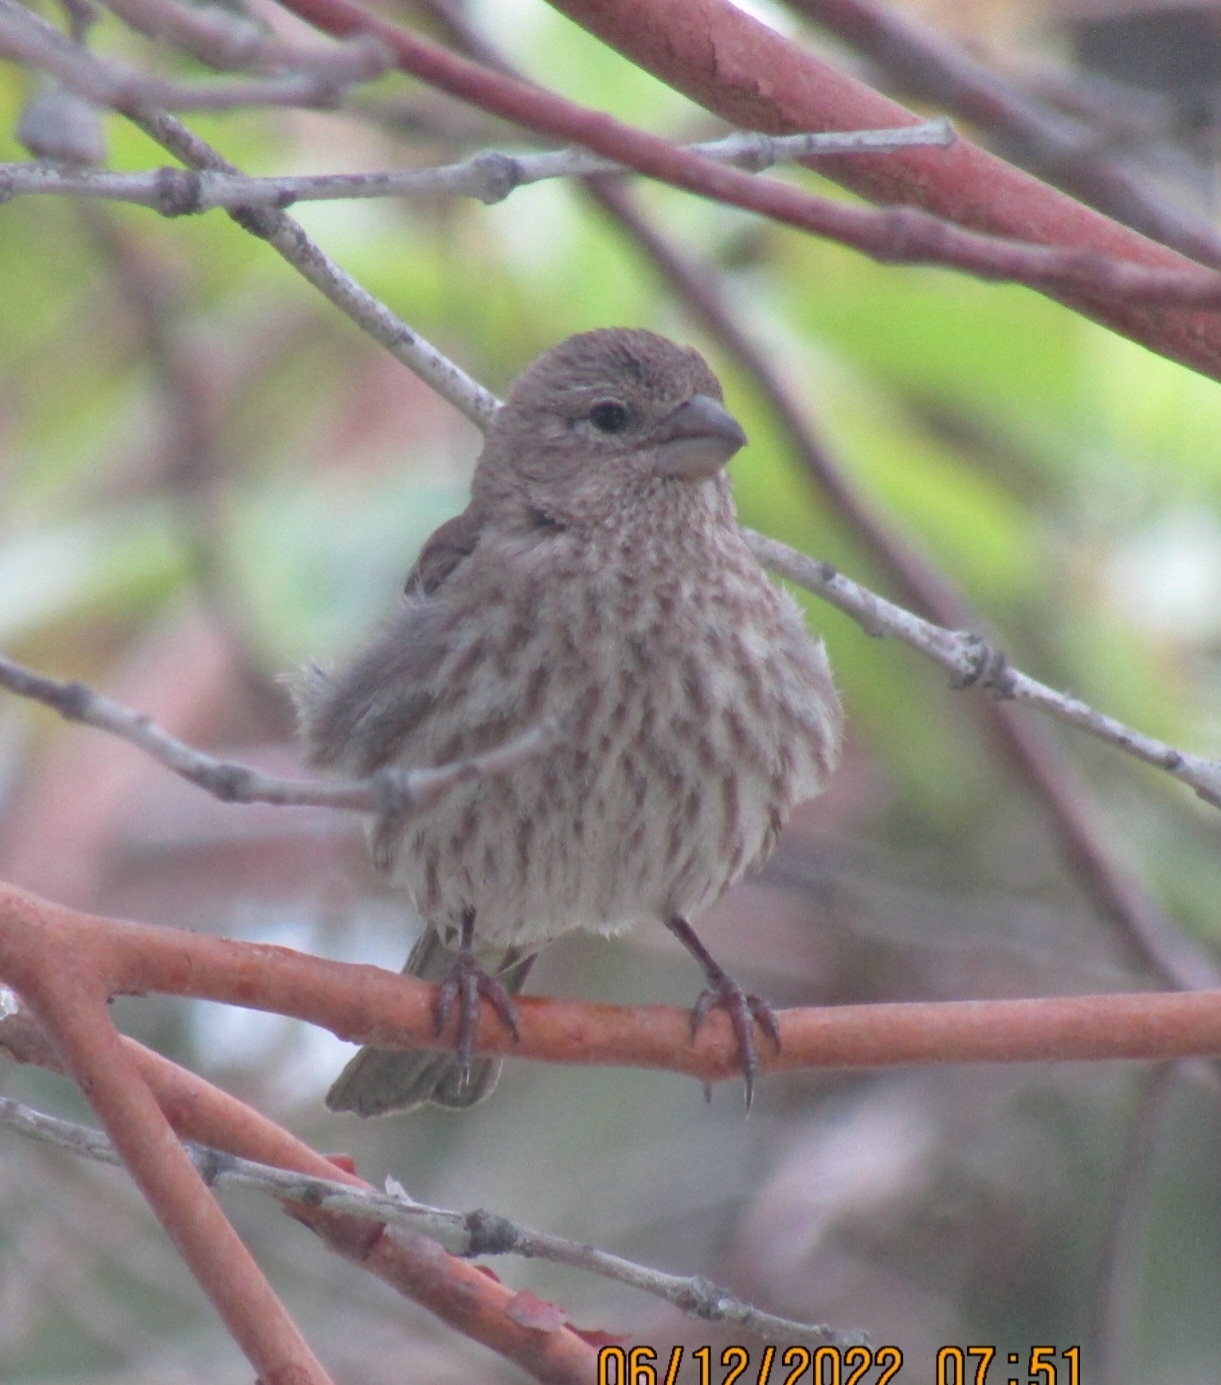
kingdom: Animalia
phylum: Chordata
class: Aves
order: Passeriformes
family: Fringillidae
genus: Haemorhous
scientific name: Haemorhous mexicanus
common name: House finch
